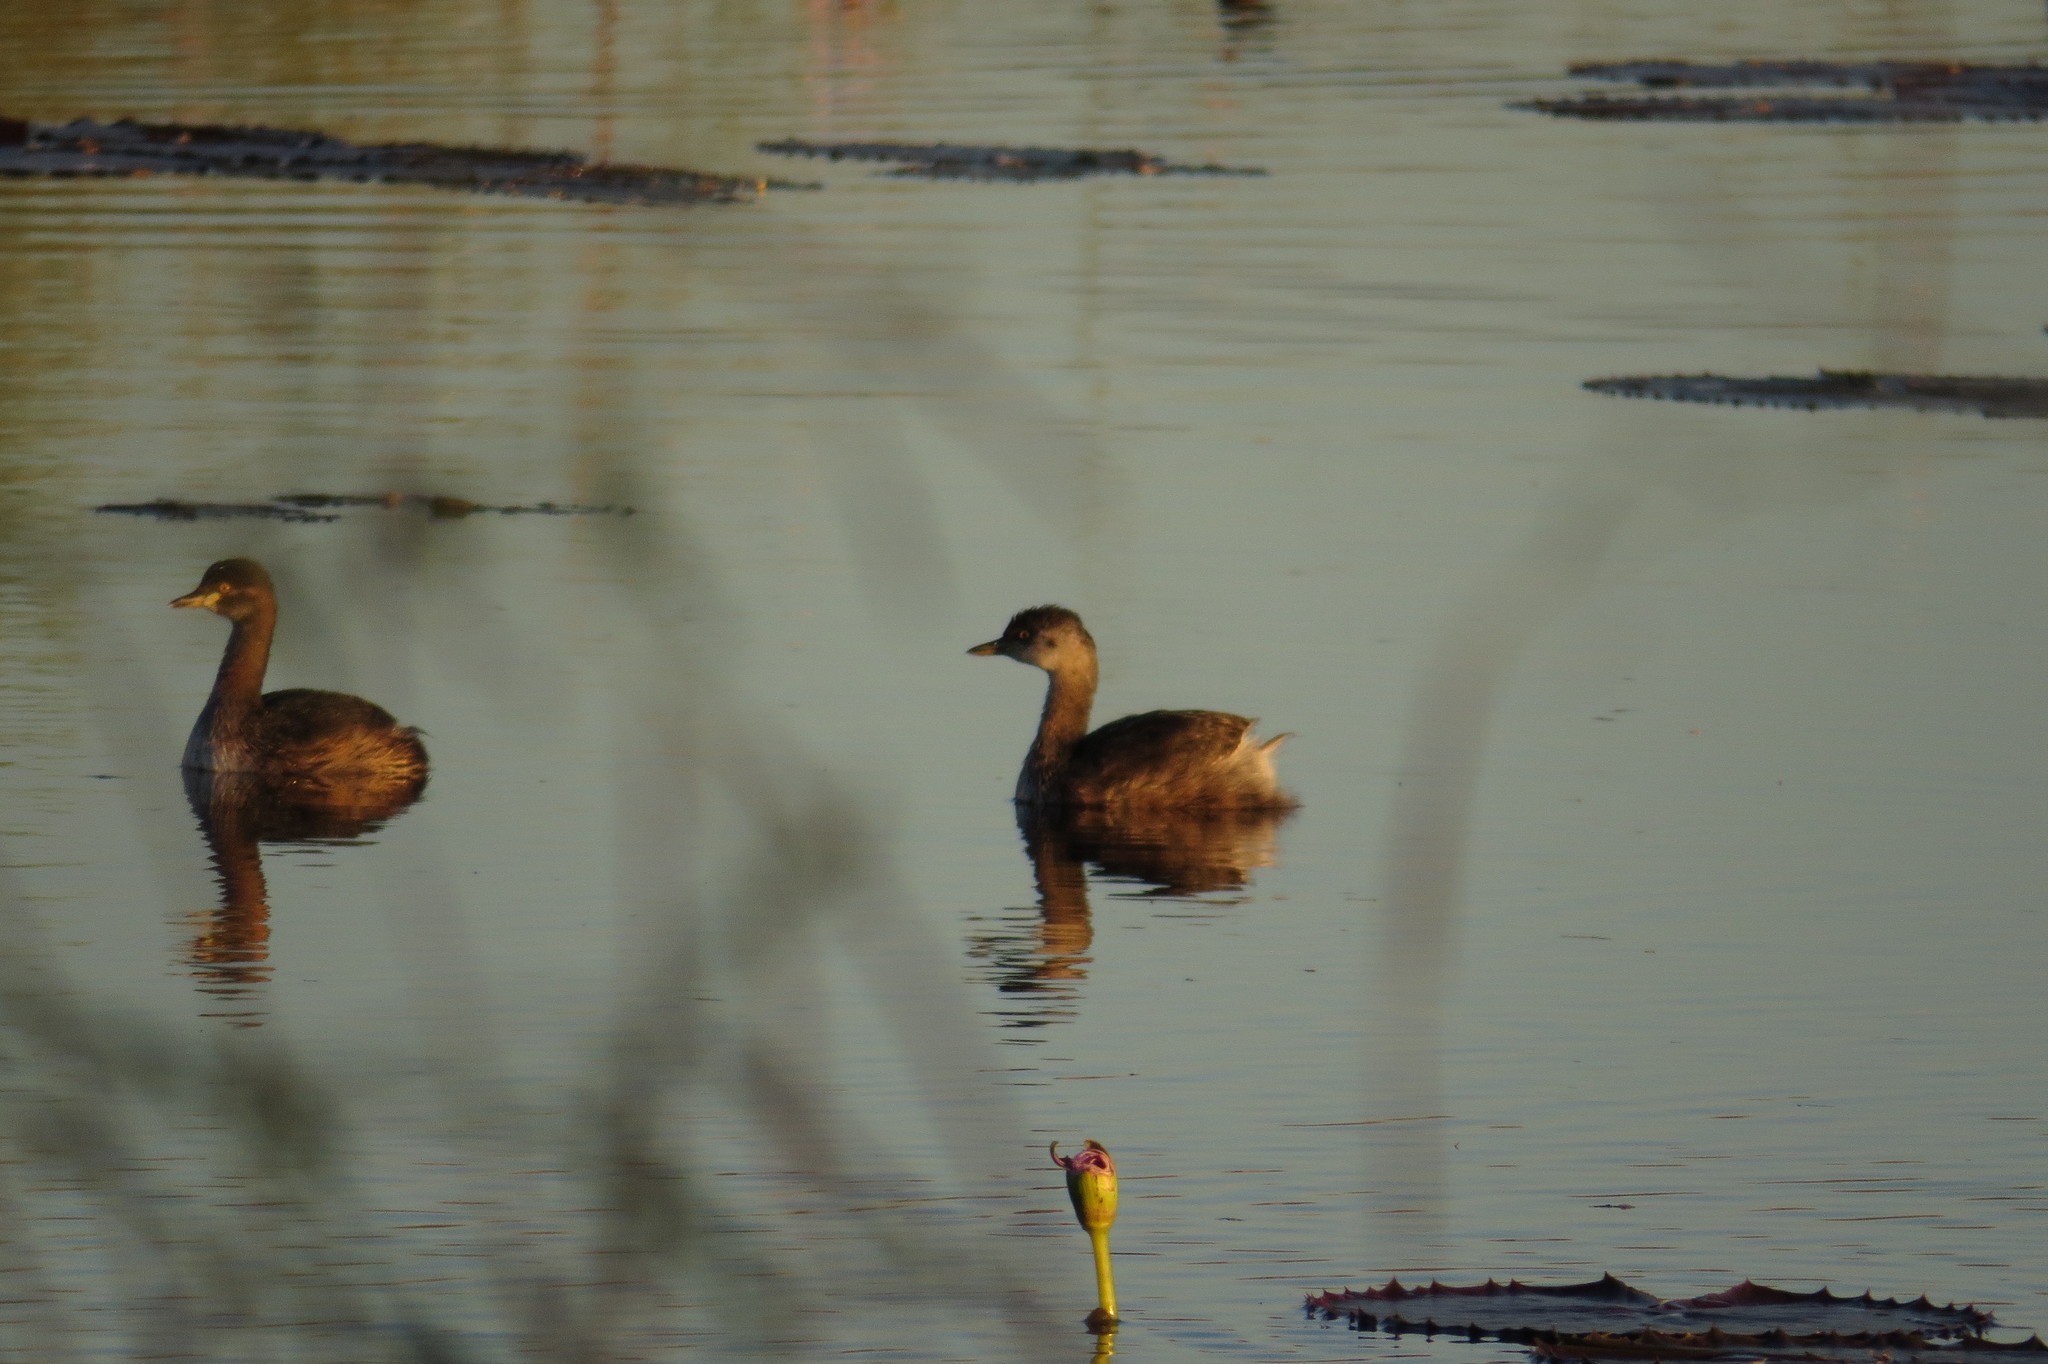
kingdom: Animalia
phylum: Chordata
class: Aves
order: Podicipediformes
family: Podicipedidae
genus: Tachybaptus
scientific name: Tachybaptus novaehollandiae
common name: Australasian grebe
